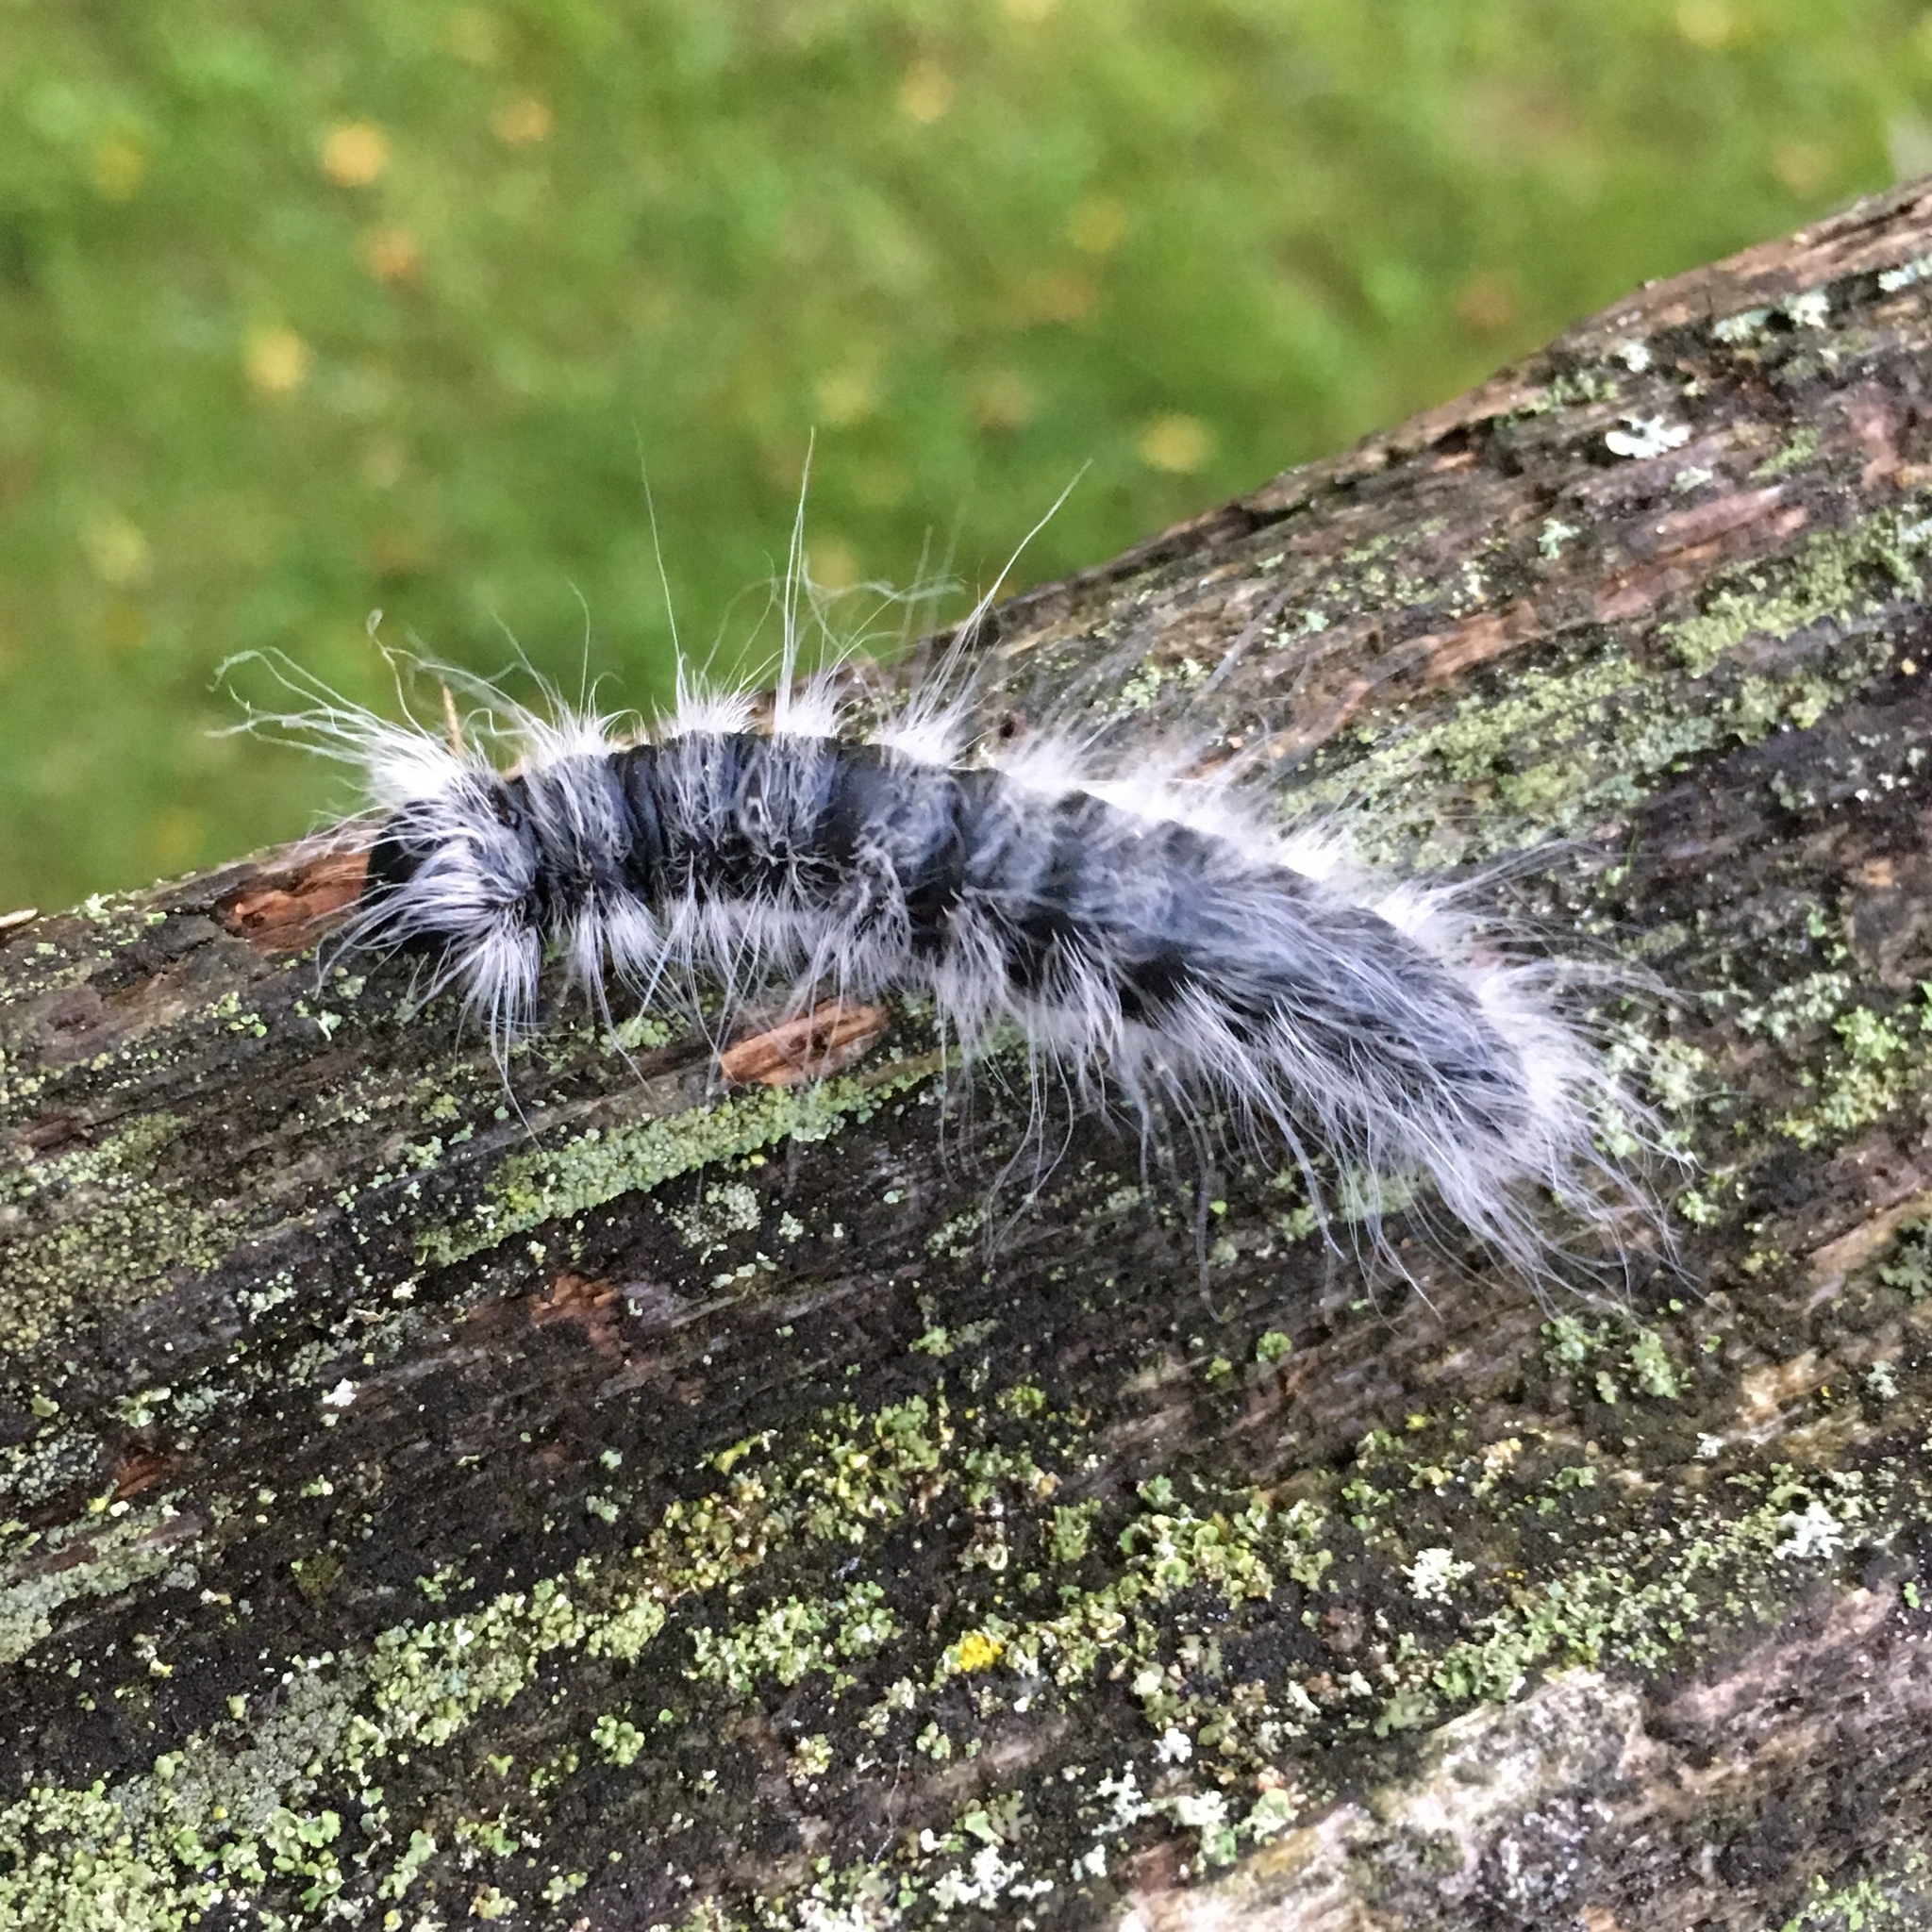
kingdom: Animalia
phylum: Arthropoda
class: Insecta
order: Lepidoptera
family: Notodontidae
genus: Datana
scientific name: Datana integerrima
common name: Walnut caterpillar
